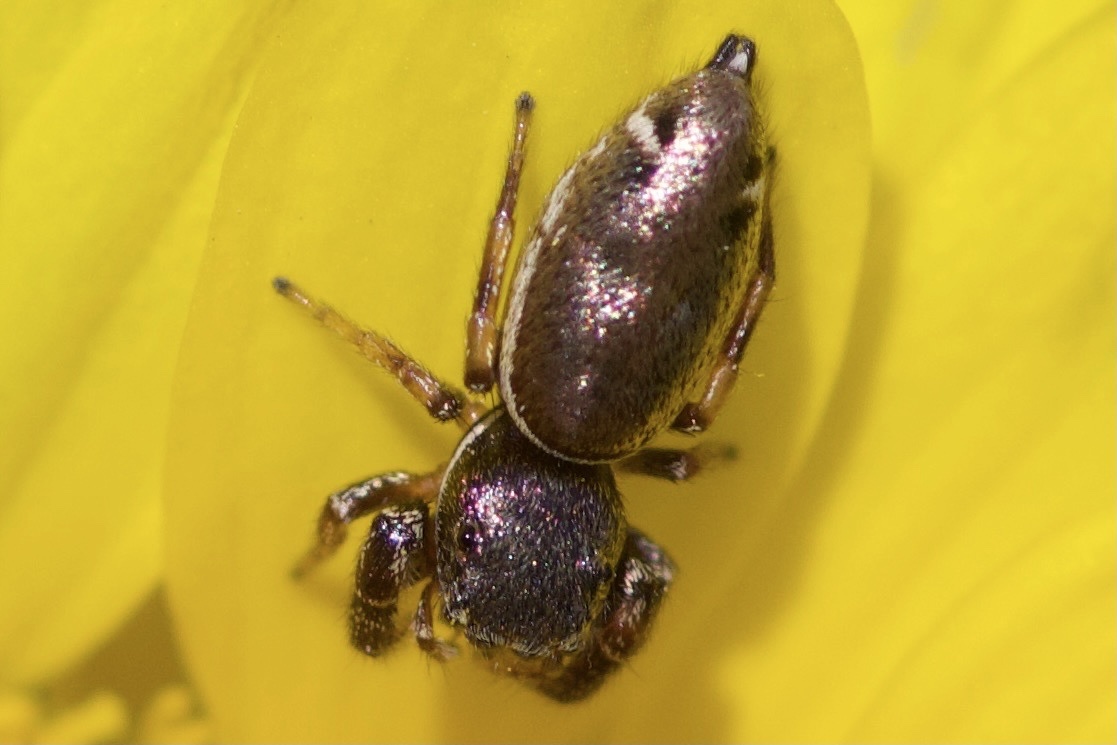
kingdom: Animalia
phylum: Arthropoda
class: Arachnida
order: Araneae
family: Salticidae
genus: Sassacus
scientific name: Sassacus vitis
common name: Jumping spiders
